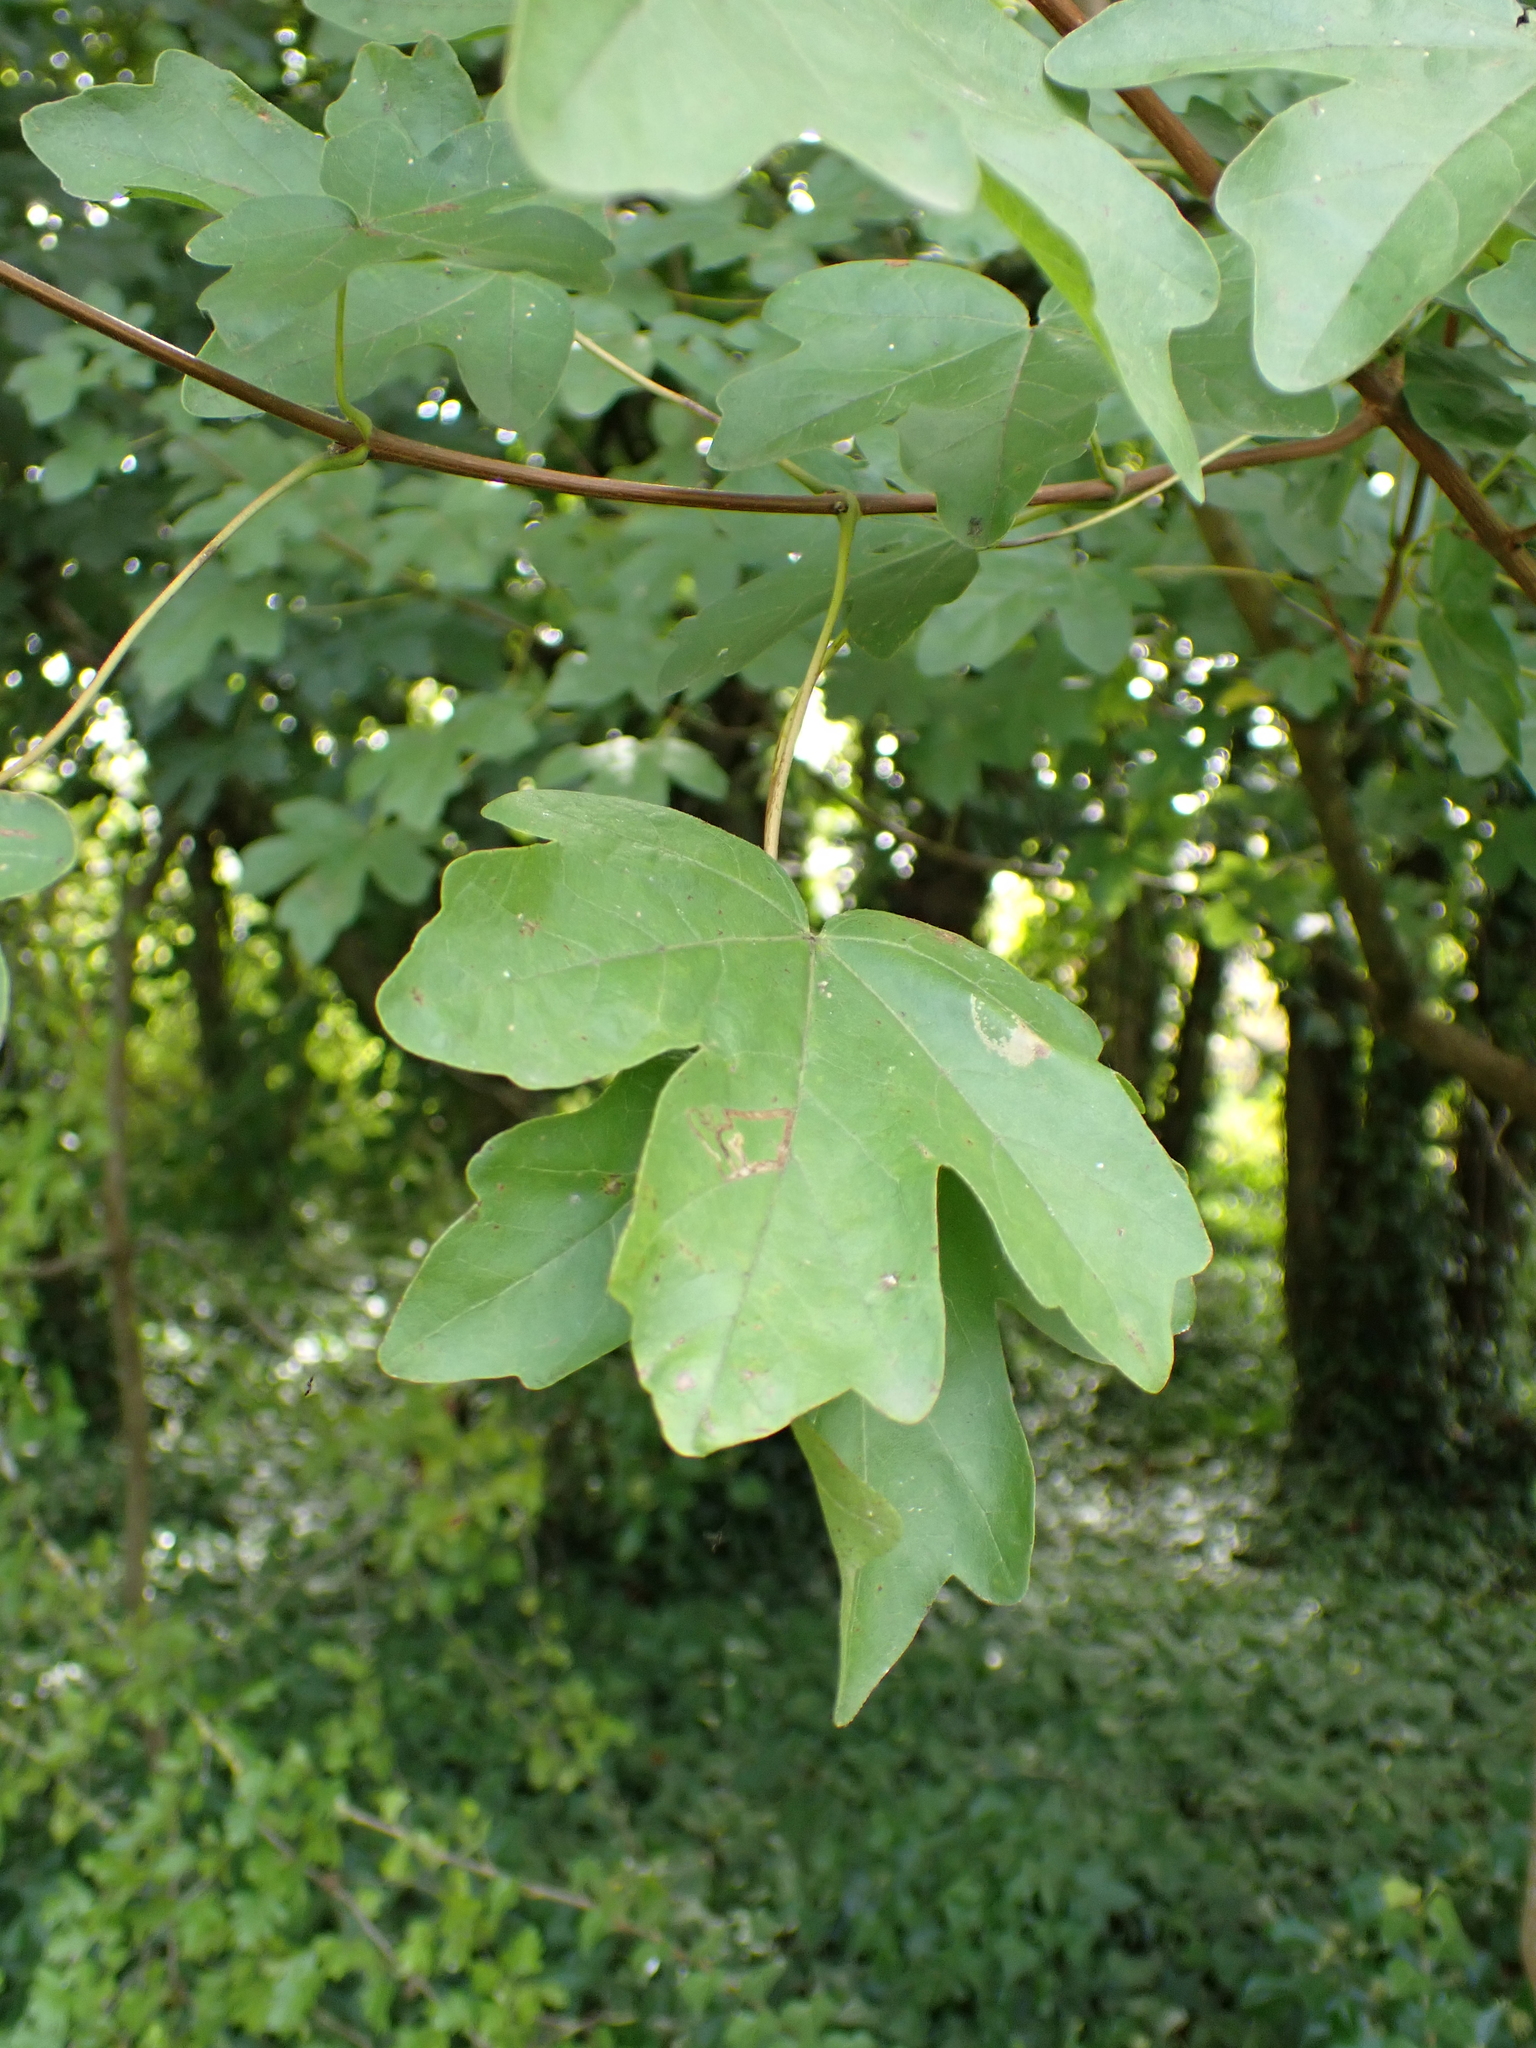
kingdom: Plantae
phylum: Tracheophyta
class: Magnoliopsida
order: Sapindales
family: Sapindaceae
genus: Acer
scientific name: Acer campestre
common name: Field maple
